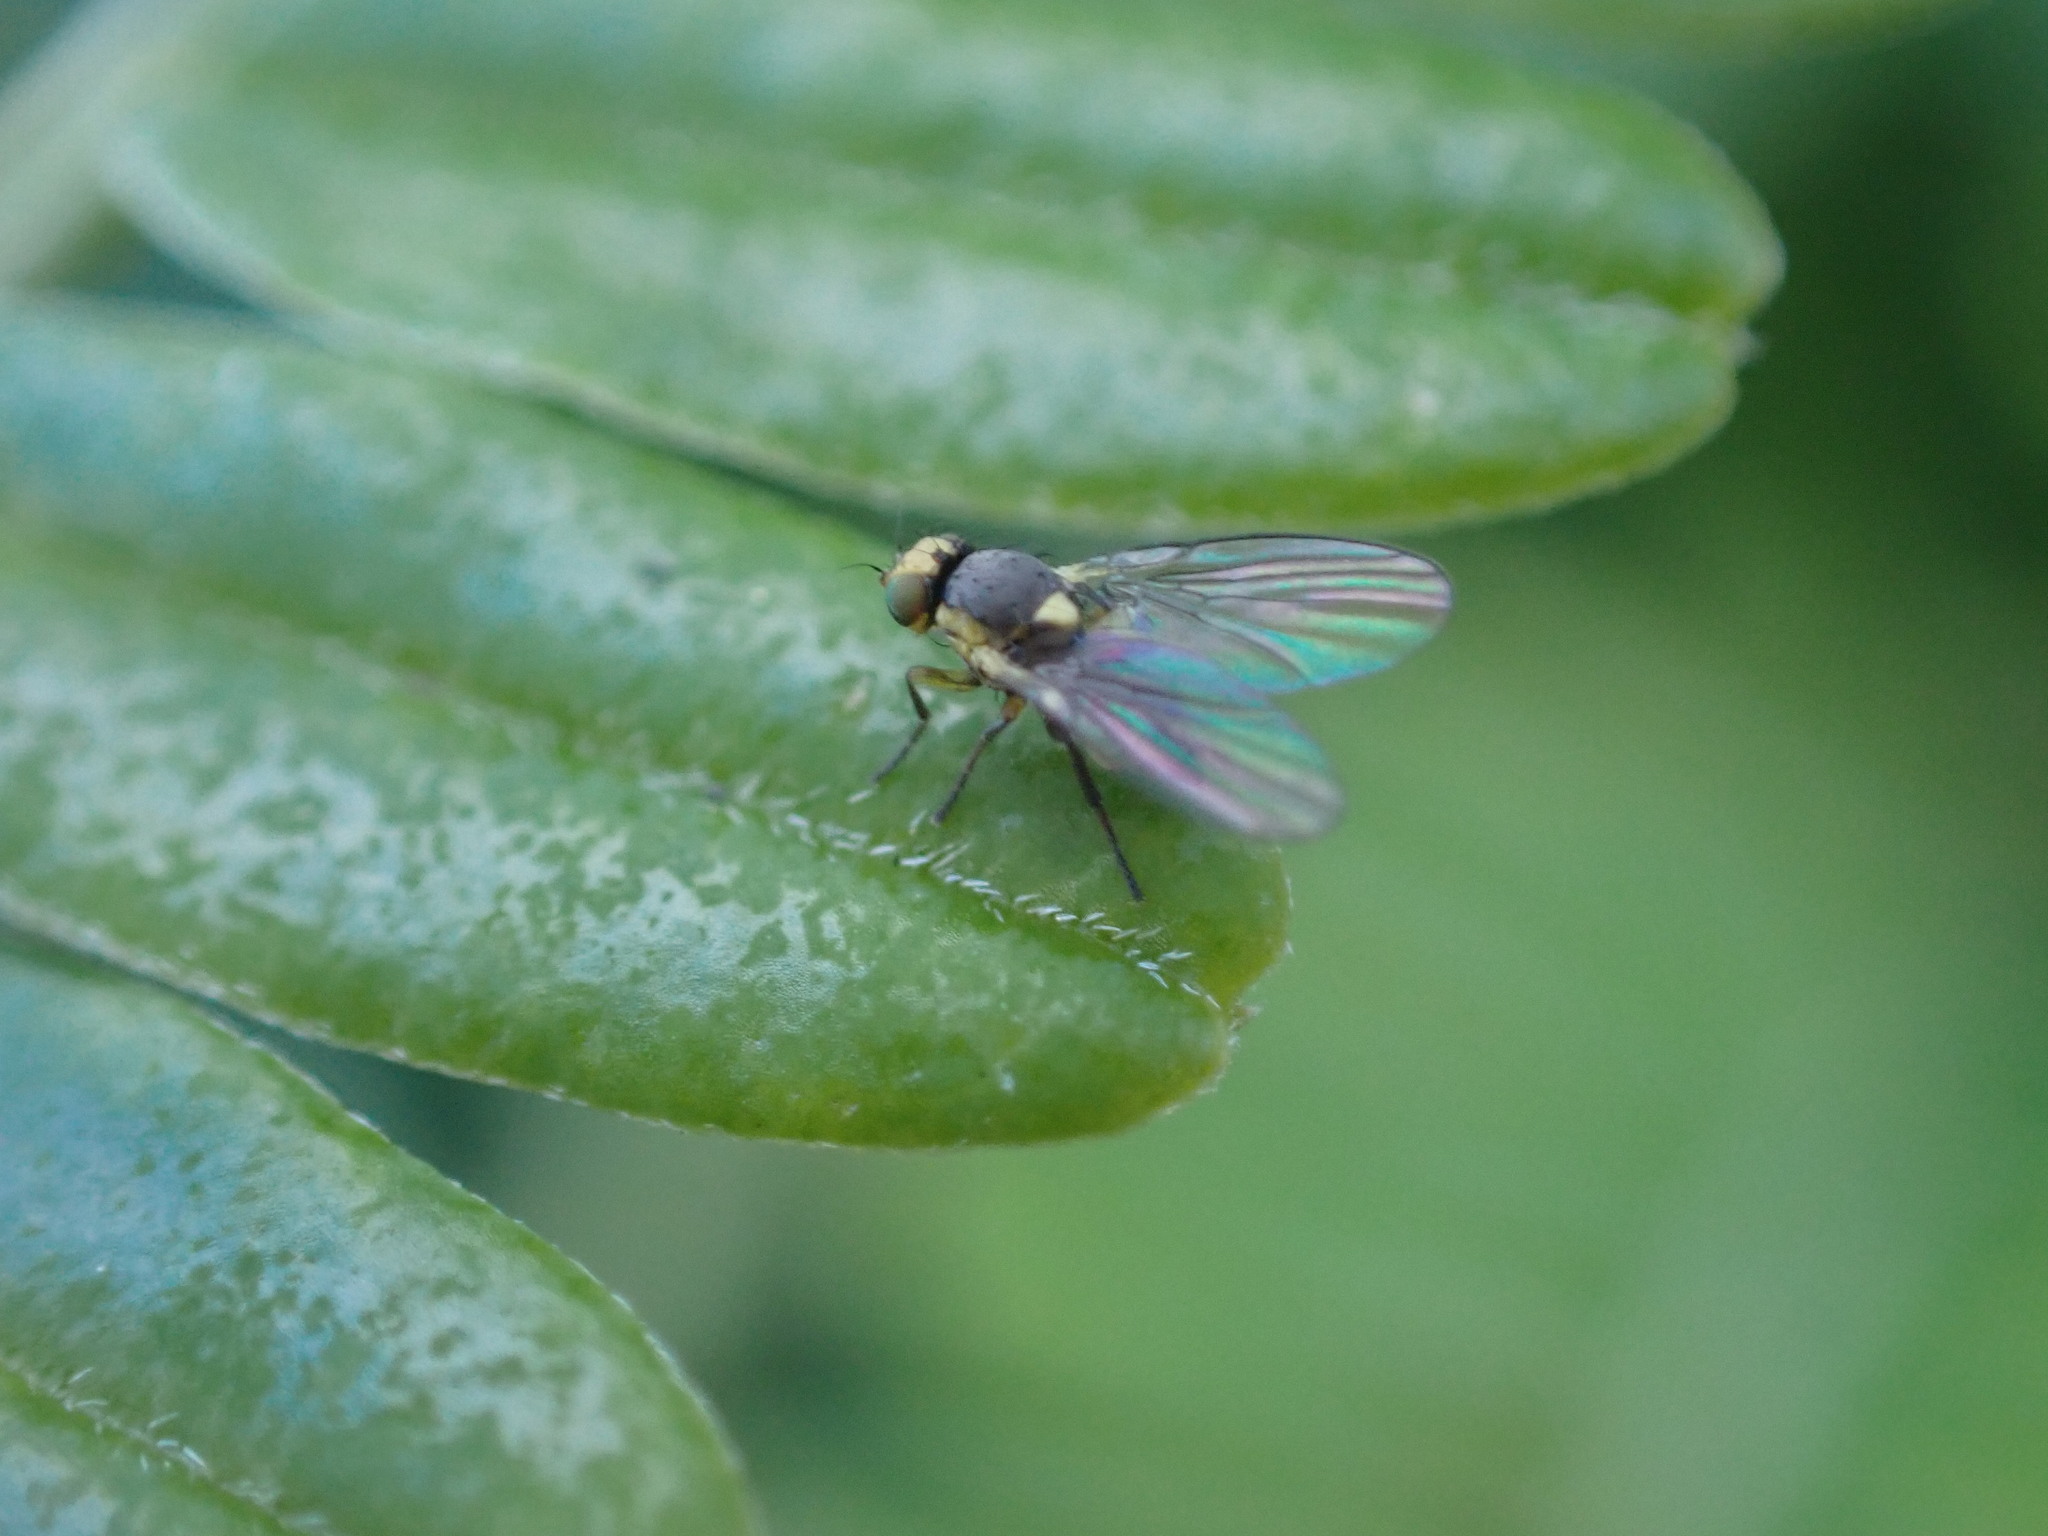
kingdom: Animalia
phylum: Arthropoda
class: Insecta
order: Diptera
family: Agromyzidae
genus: Liriomyza
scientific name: Liriomyza clianthi
